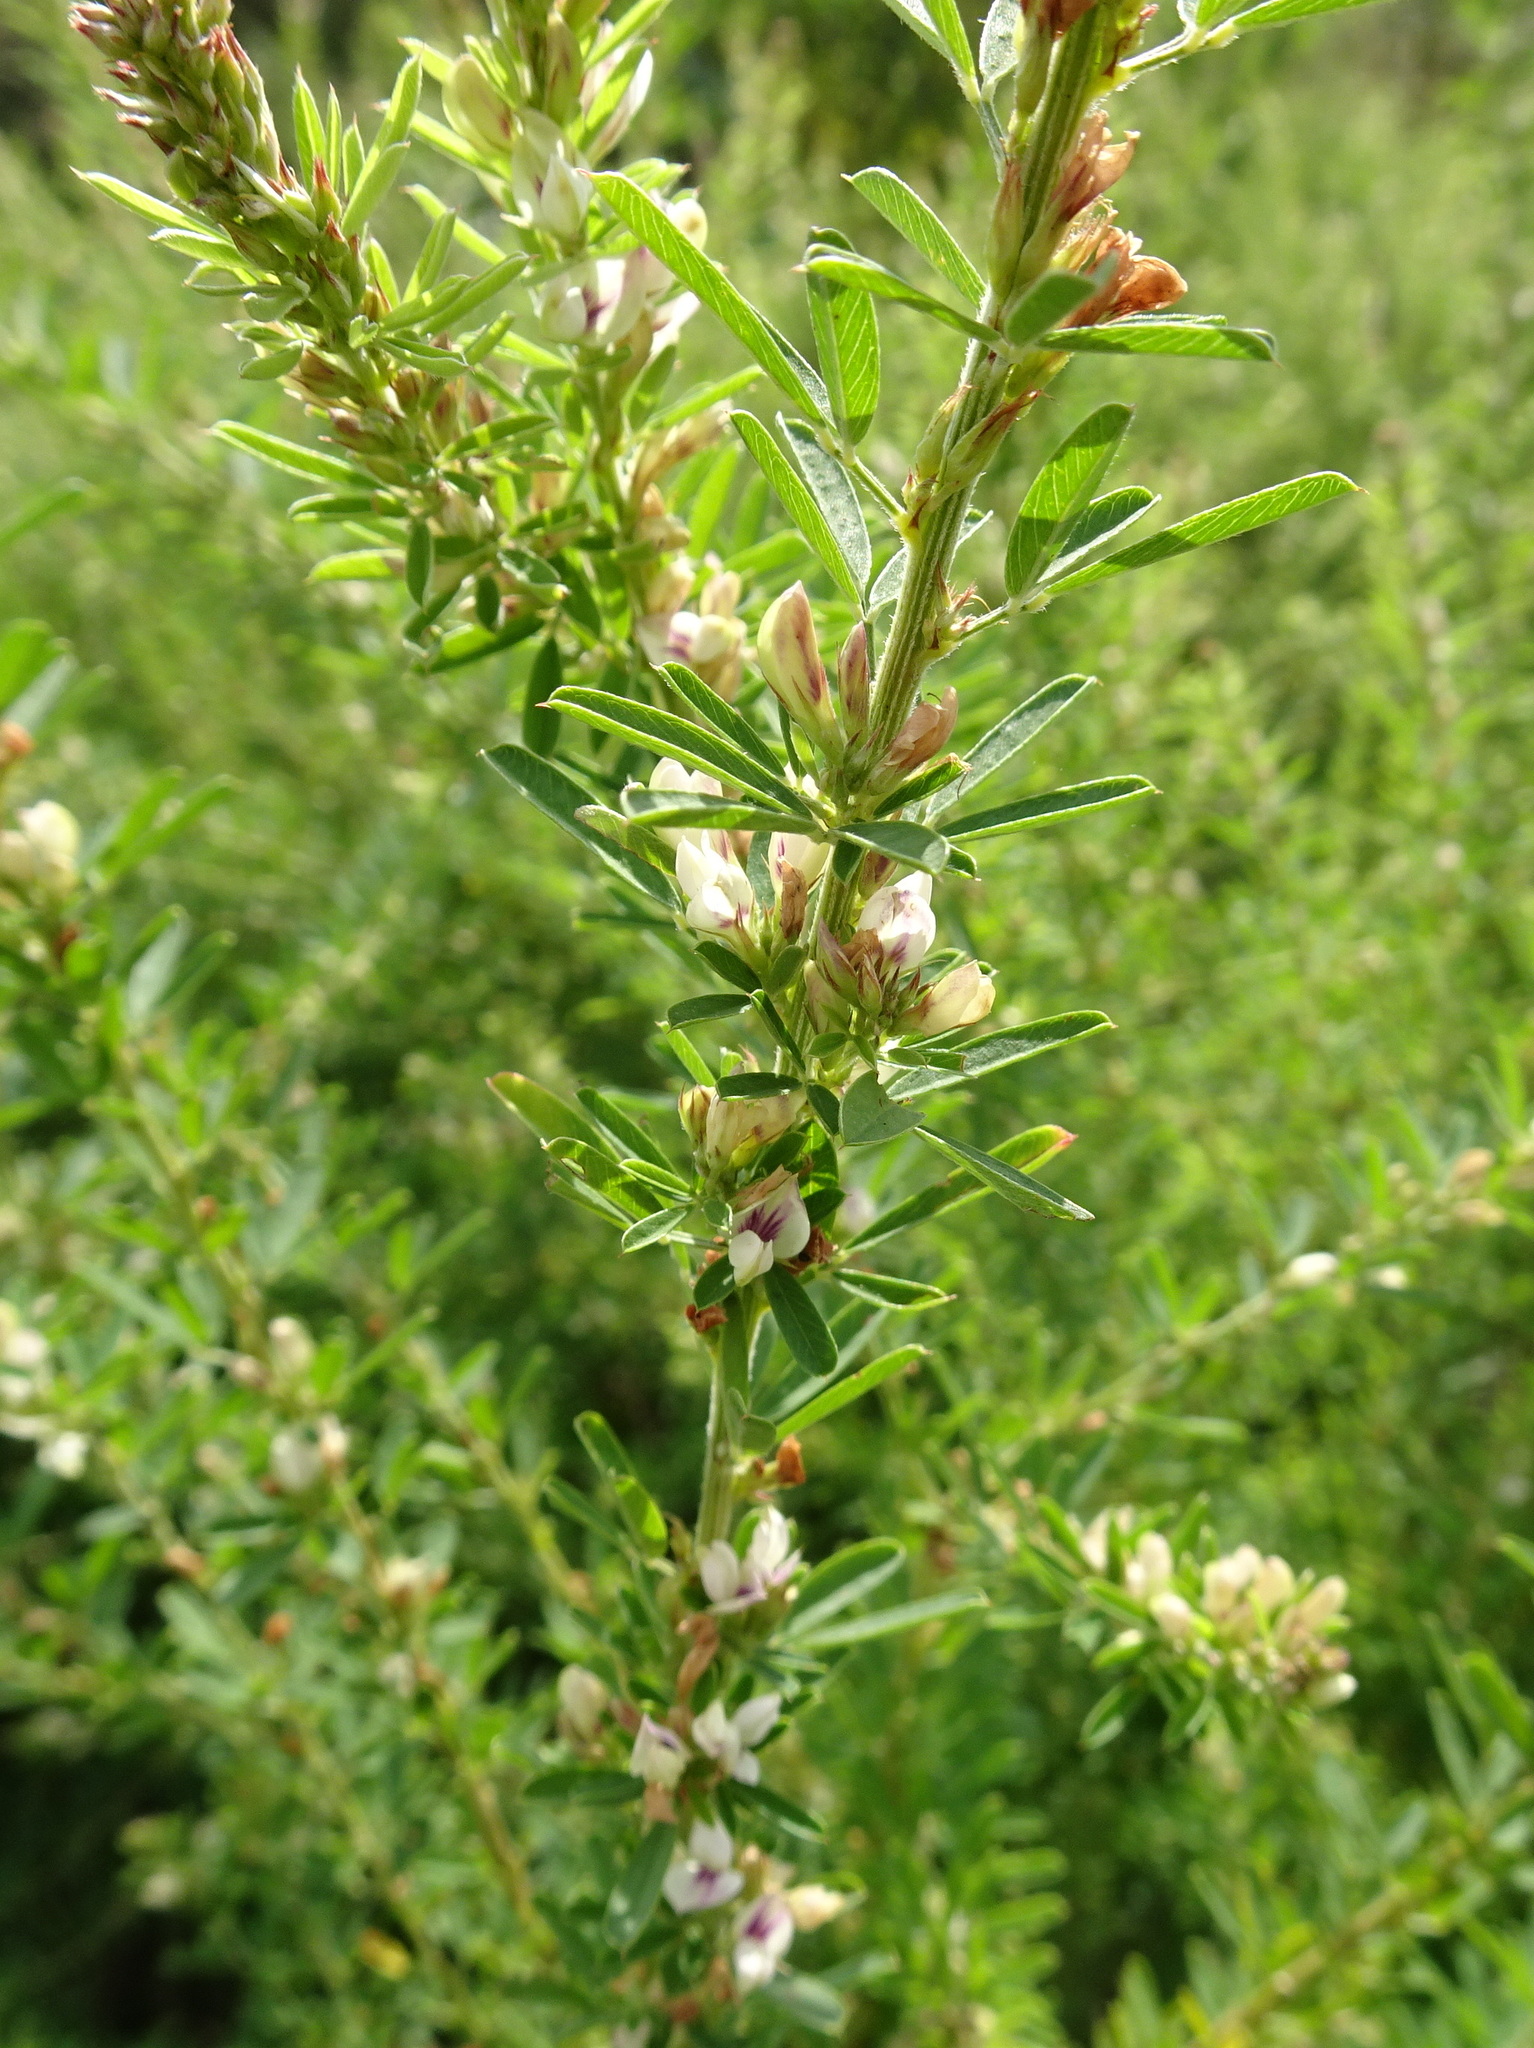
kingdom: Plantae
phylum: Tracheophyta
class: Magnoliopsida
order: Fabales
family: Fabaceae
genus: Lespedeza
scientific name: Lespedeza cuneata
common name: Chinese bush-clover
